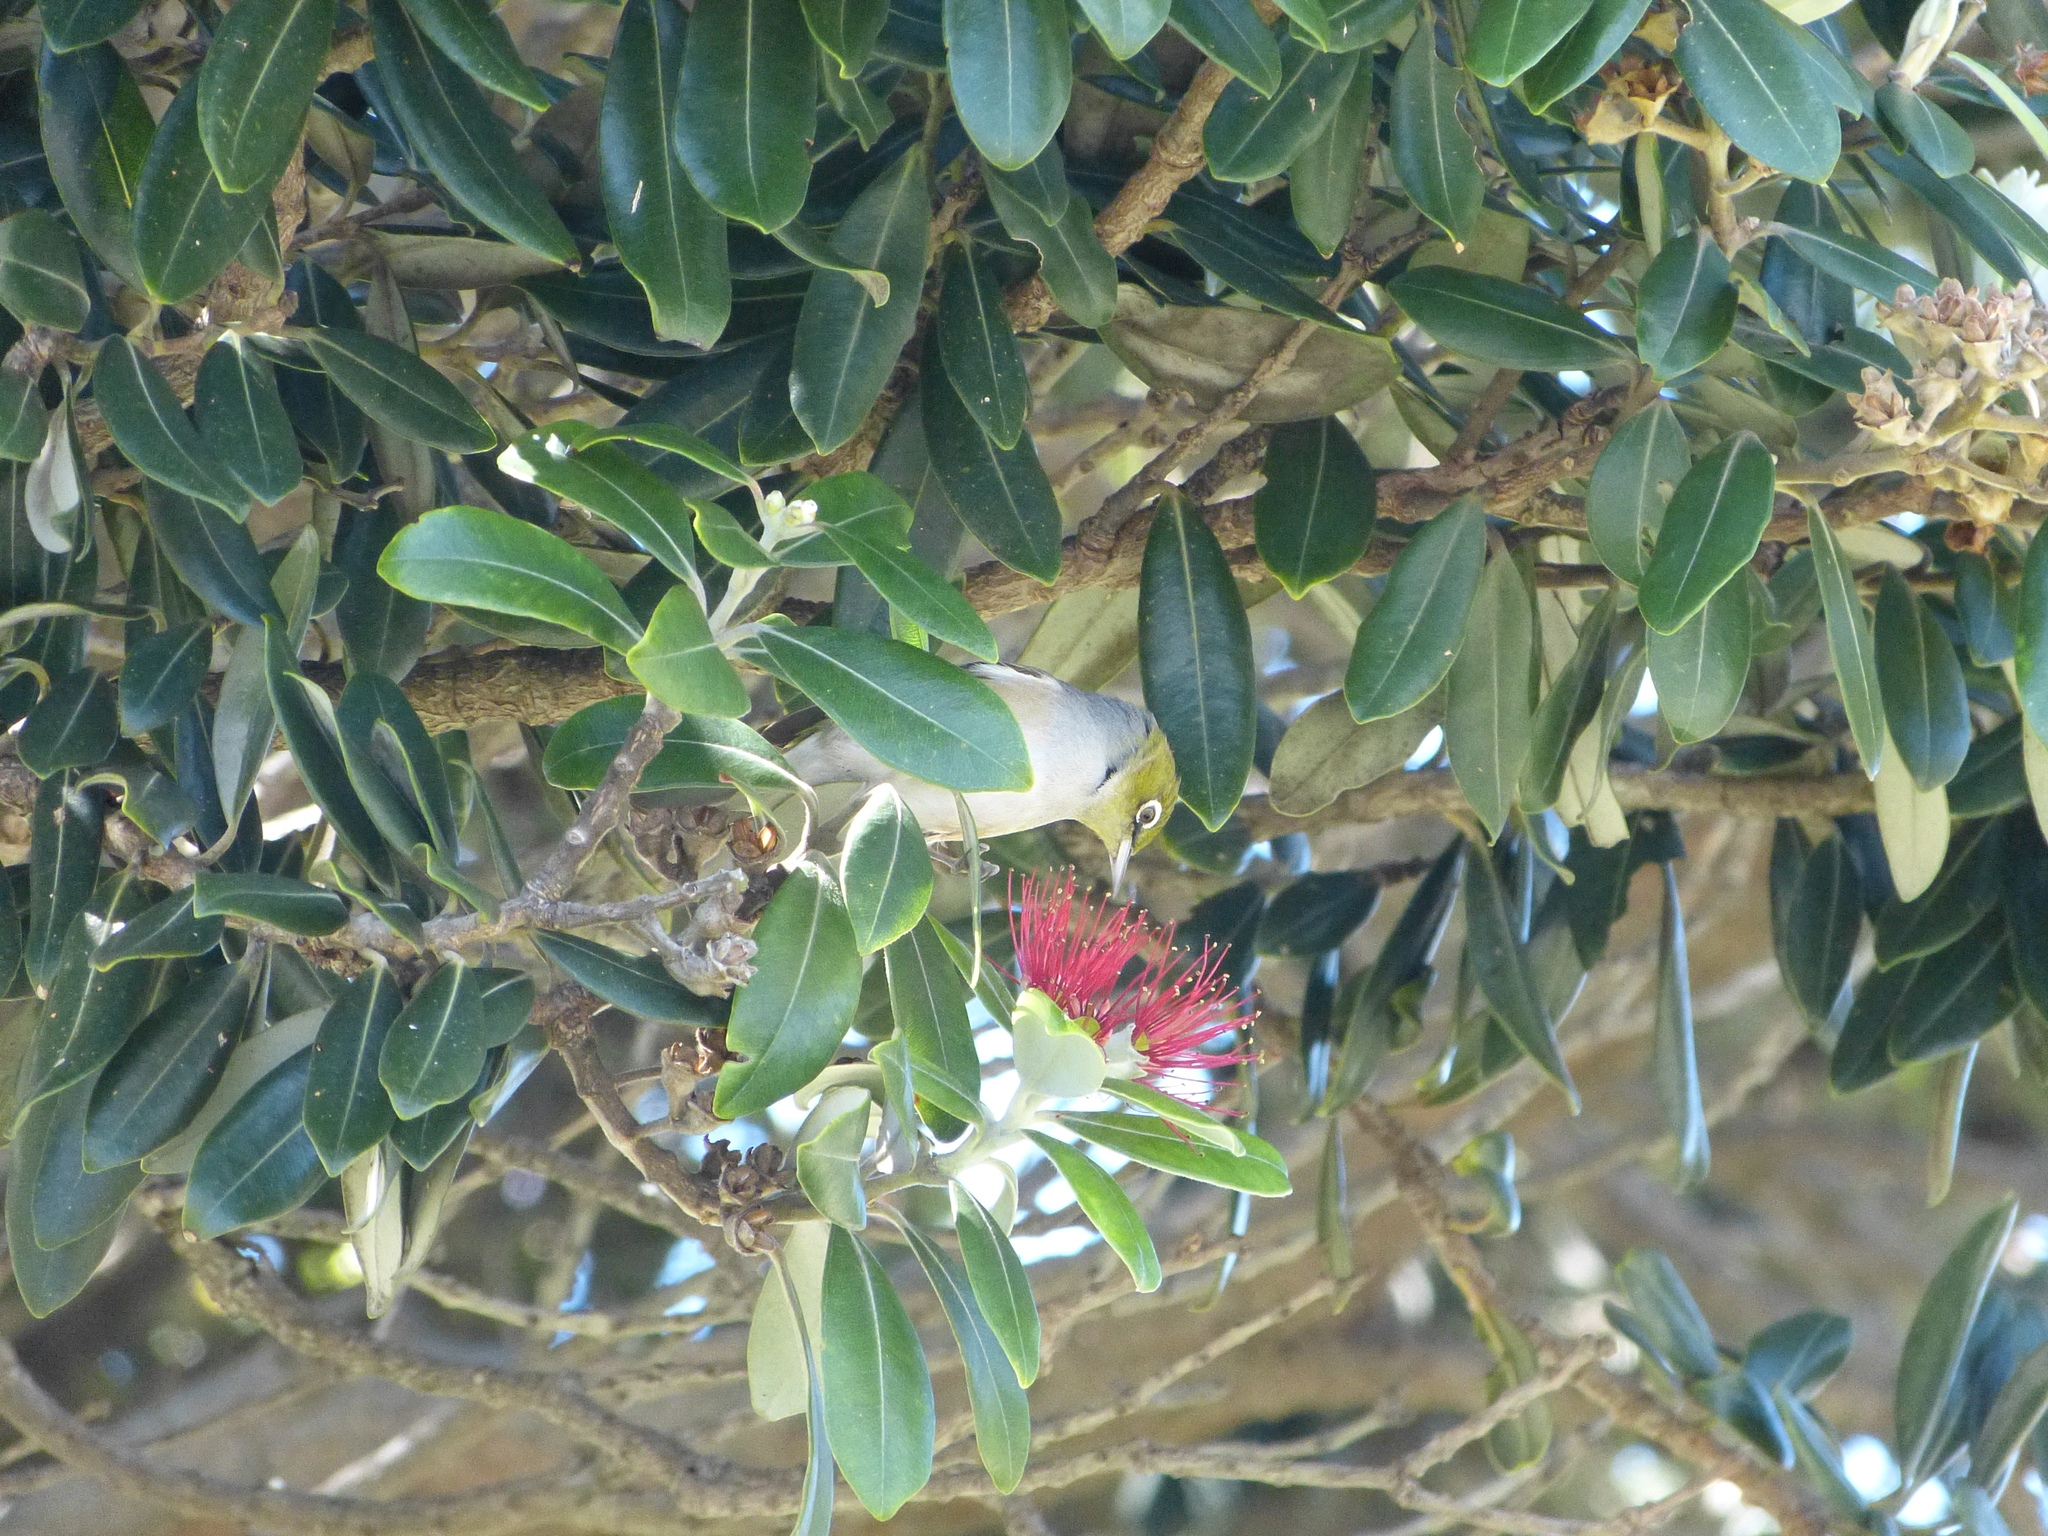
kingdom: Animalia
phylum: Chordata
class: Aves
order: Passeriformes
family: Zosteropidae
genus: Zosterops
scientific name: Zosterops lateralis
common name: Silvereye
